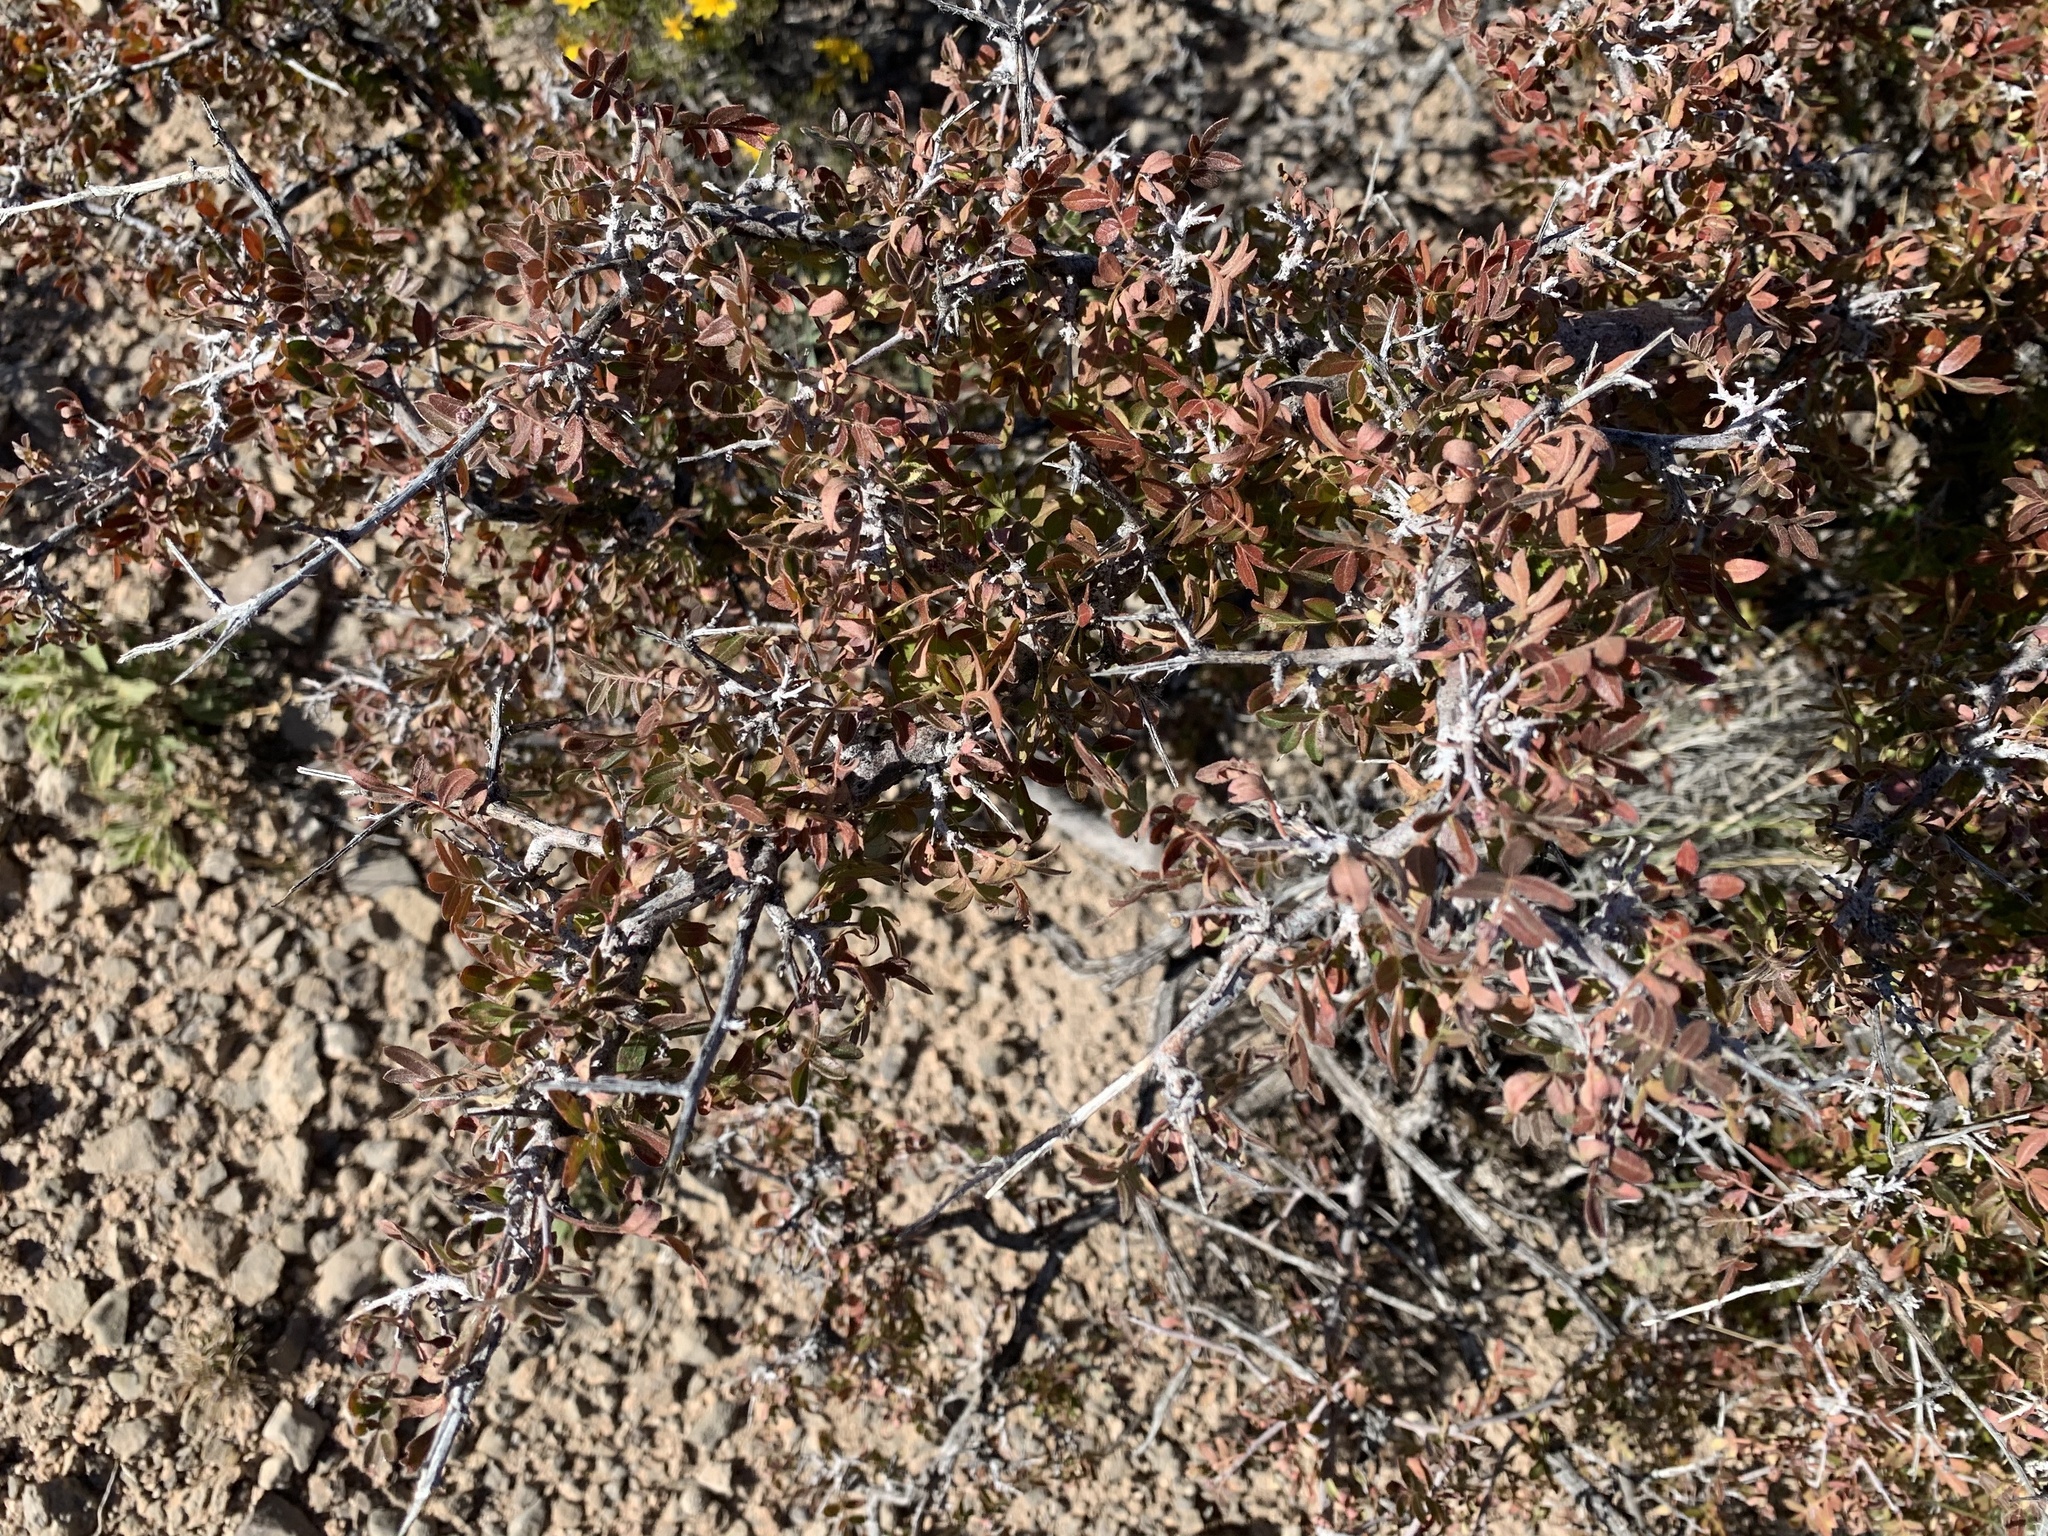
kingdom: Plantae
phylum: Tracheophyta
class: Magnoliopsida
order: Sapindales
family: Anacardiaceae
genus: Rhus
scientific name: Rhus microphylla
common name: Desert sumac
